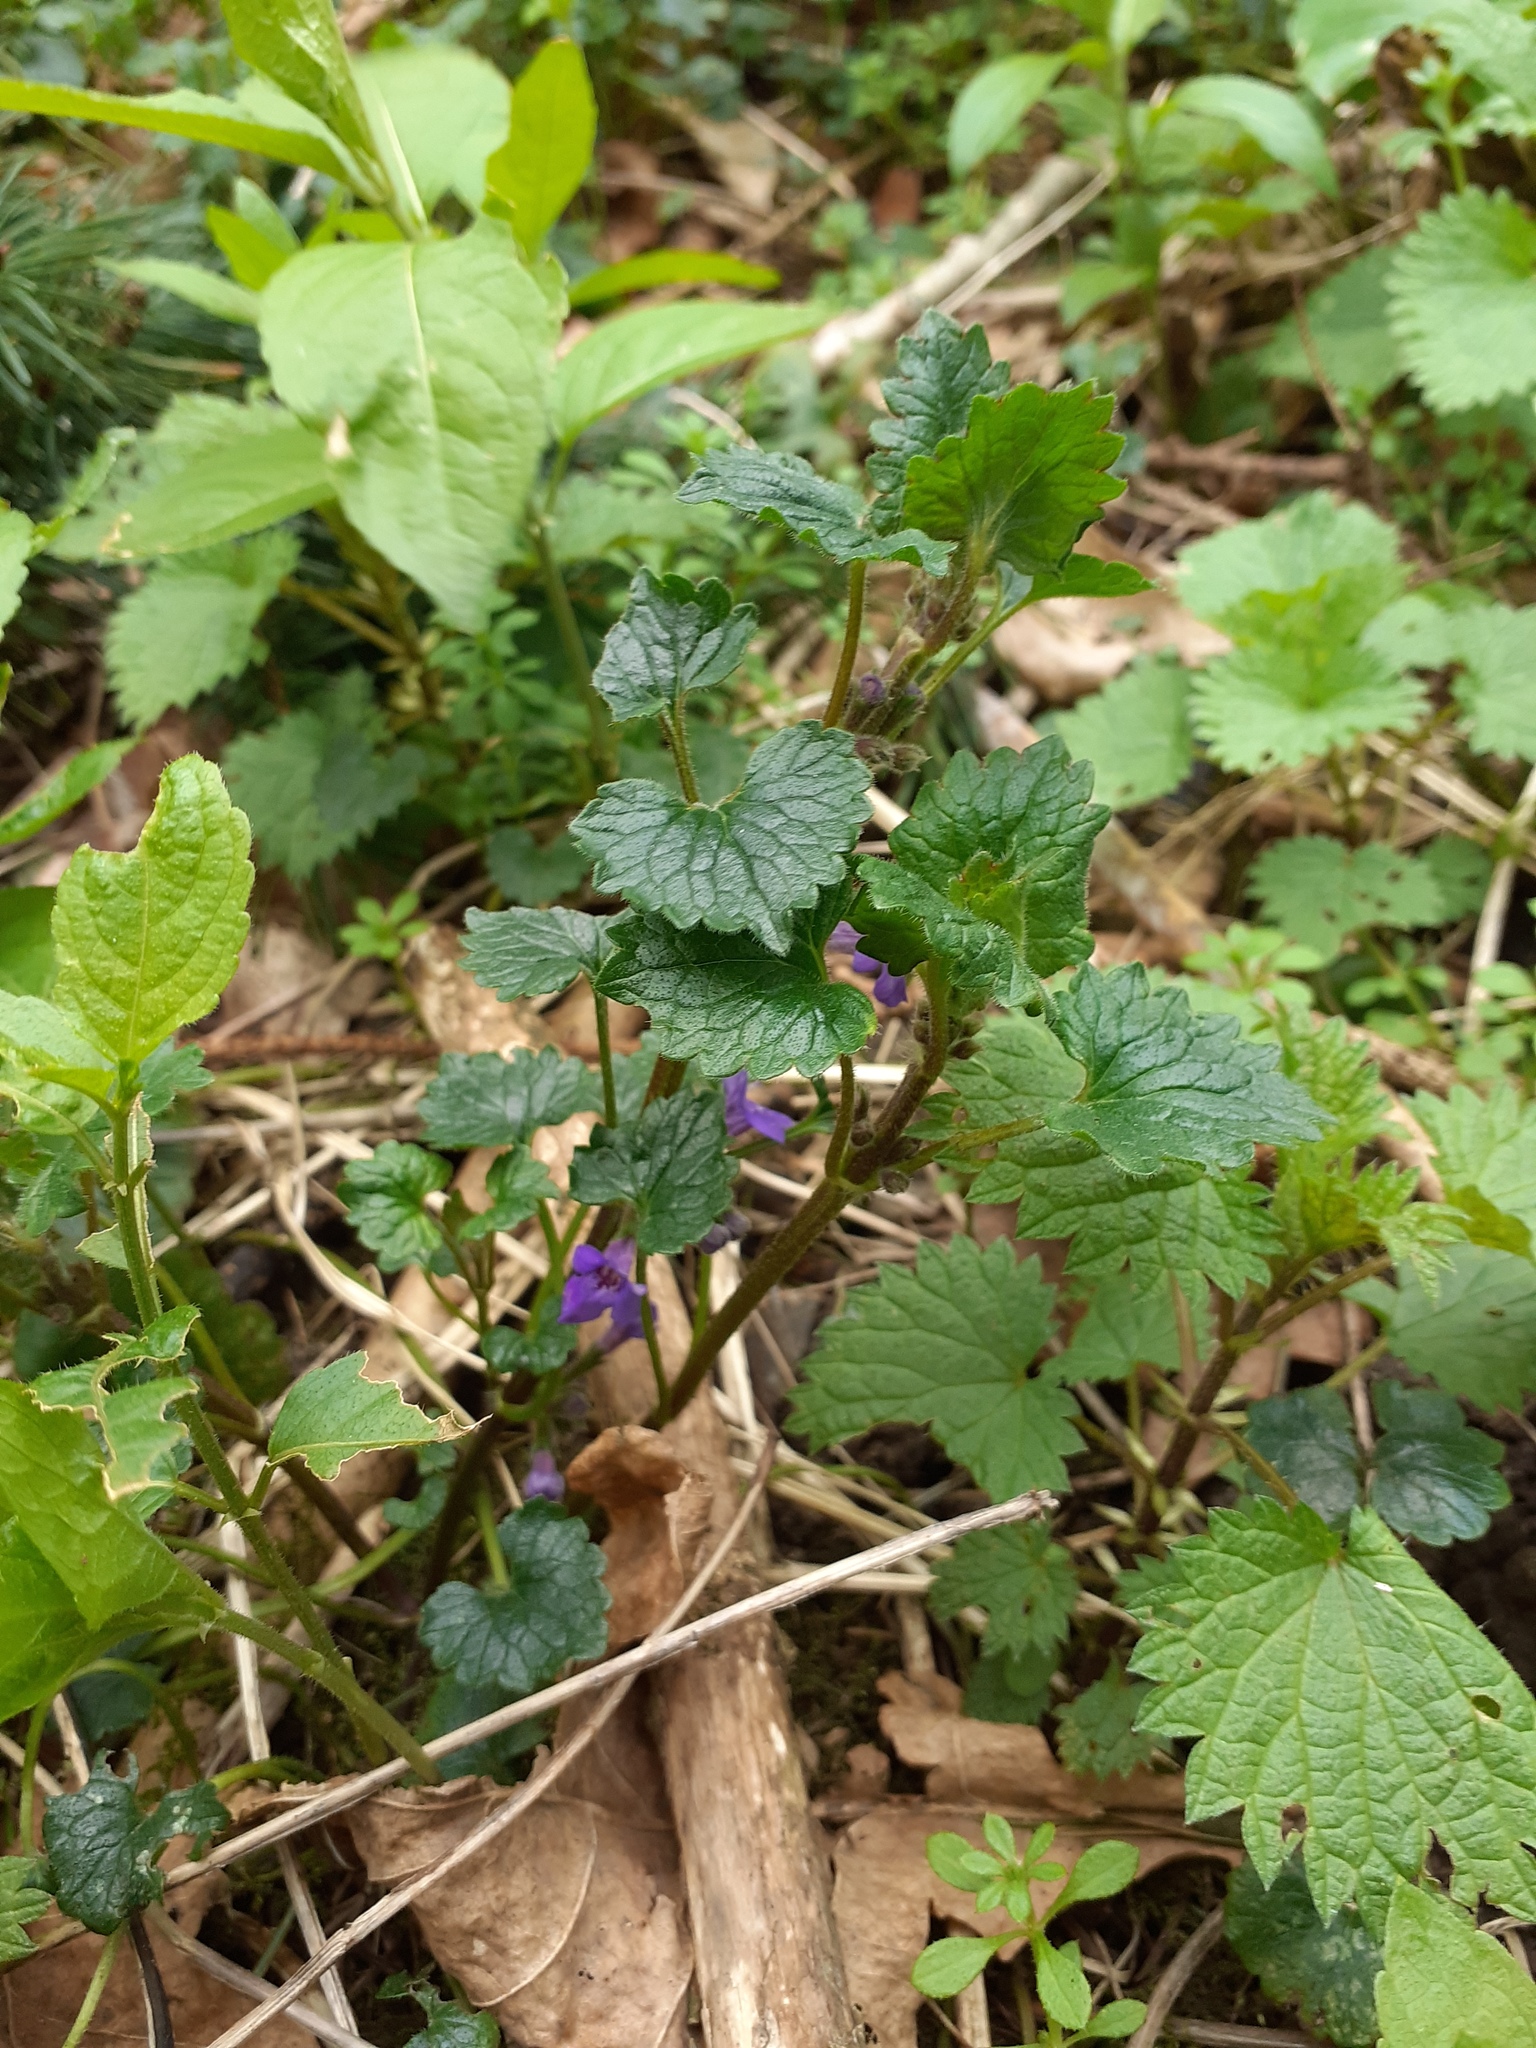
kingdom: Plantae
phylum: Tracheophyta
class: Magnoliopsida
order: Lamiales
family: Lamiaceae
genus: Glechoma
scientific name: Glechoma hederacea
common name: Ground ivy
